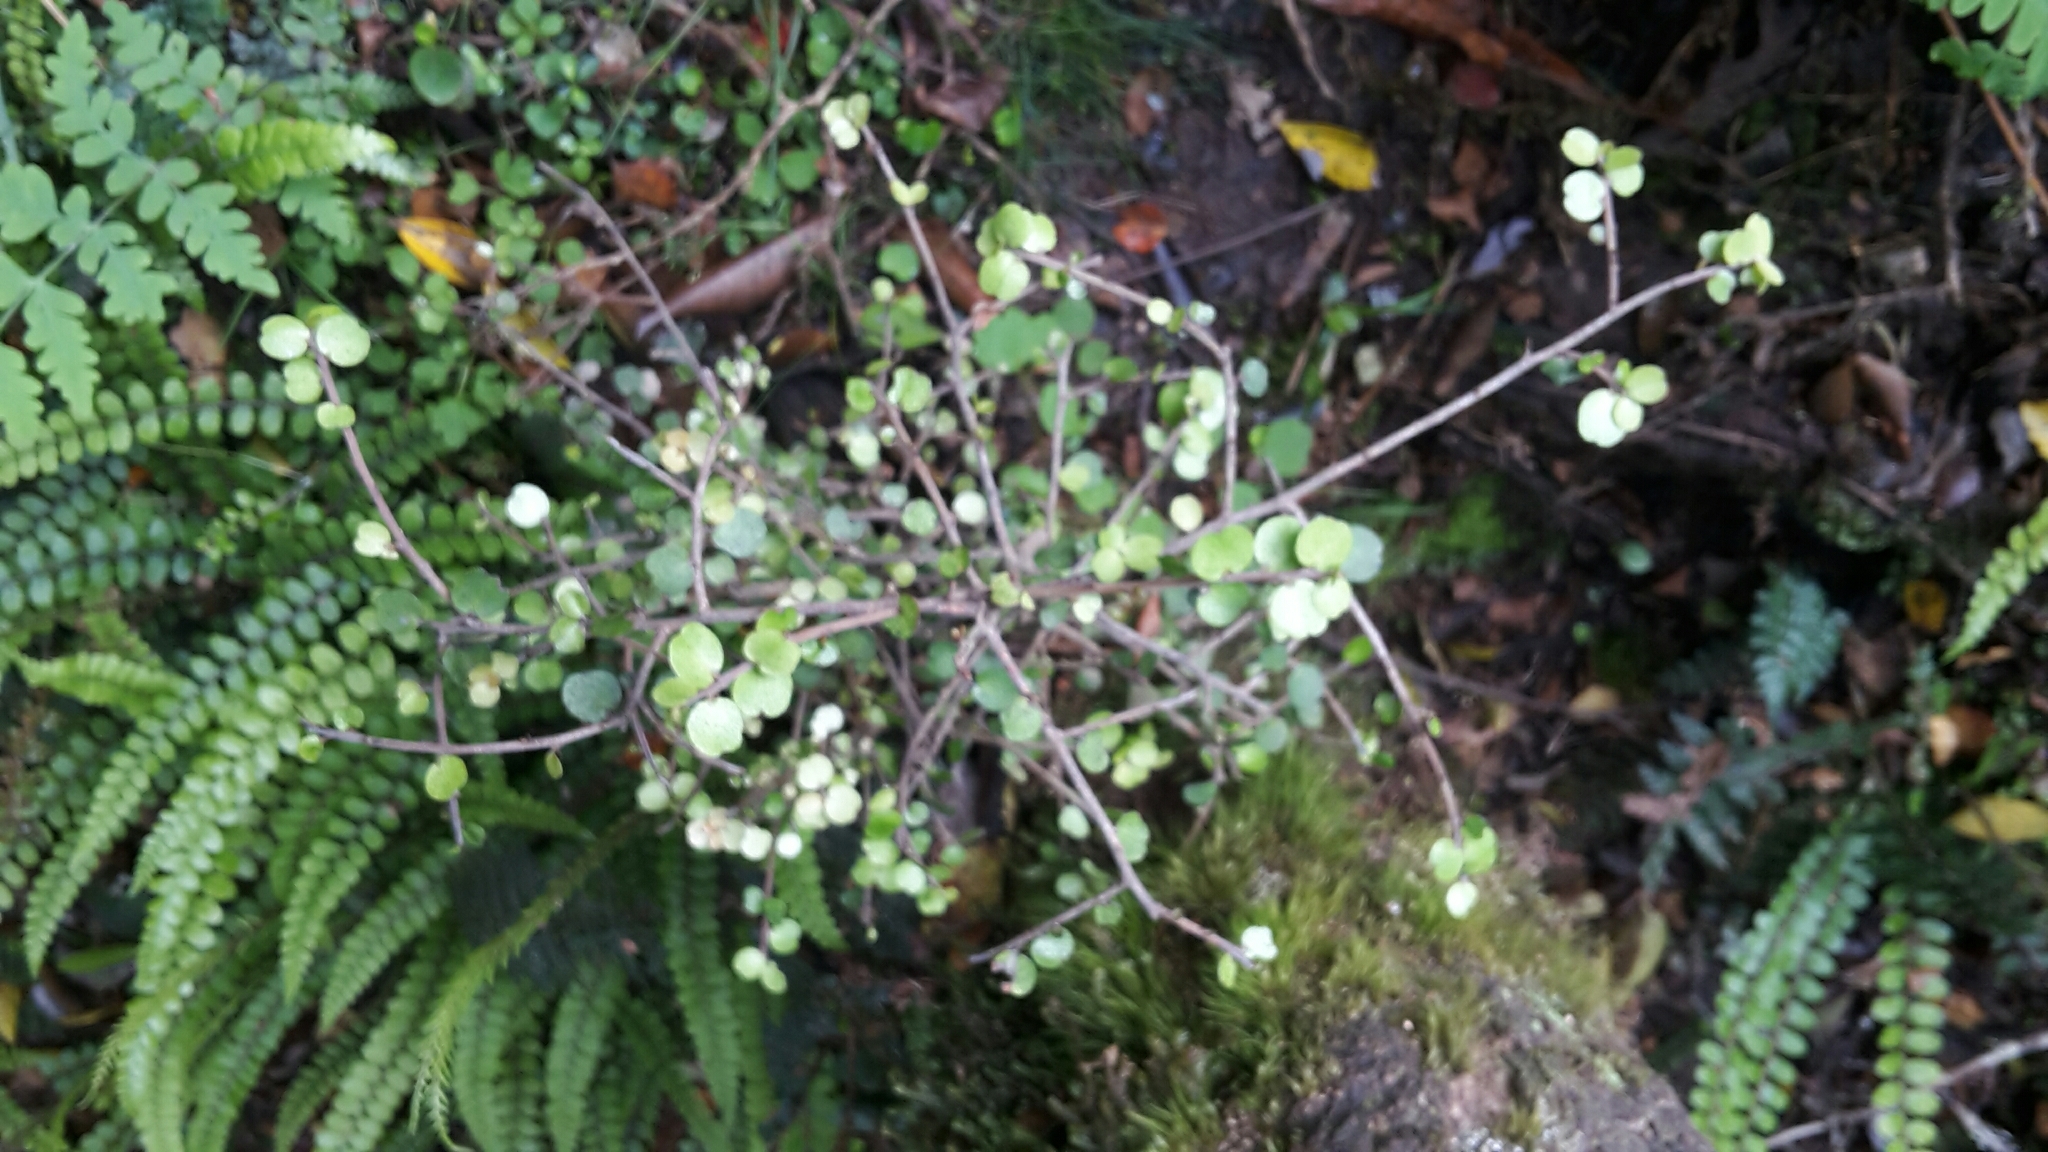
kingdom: Plantae
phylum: Tracheophyta
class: Magnoliopsida
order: Ericales
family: Primulaceae
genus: Myrsine
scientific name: Myrsine divaricata
